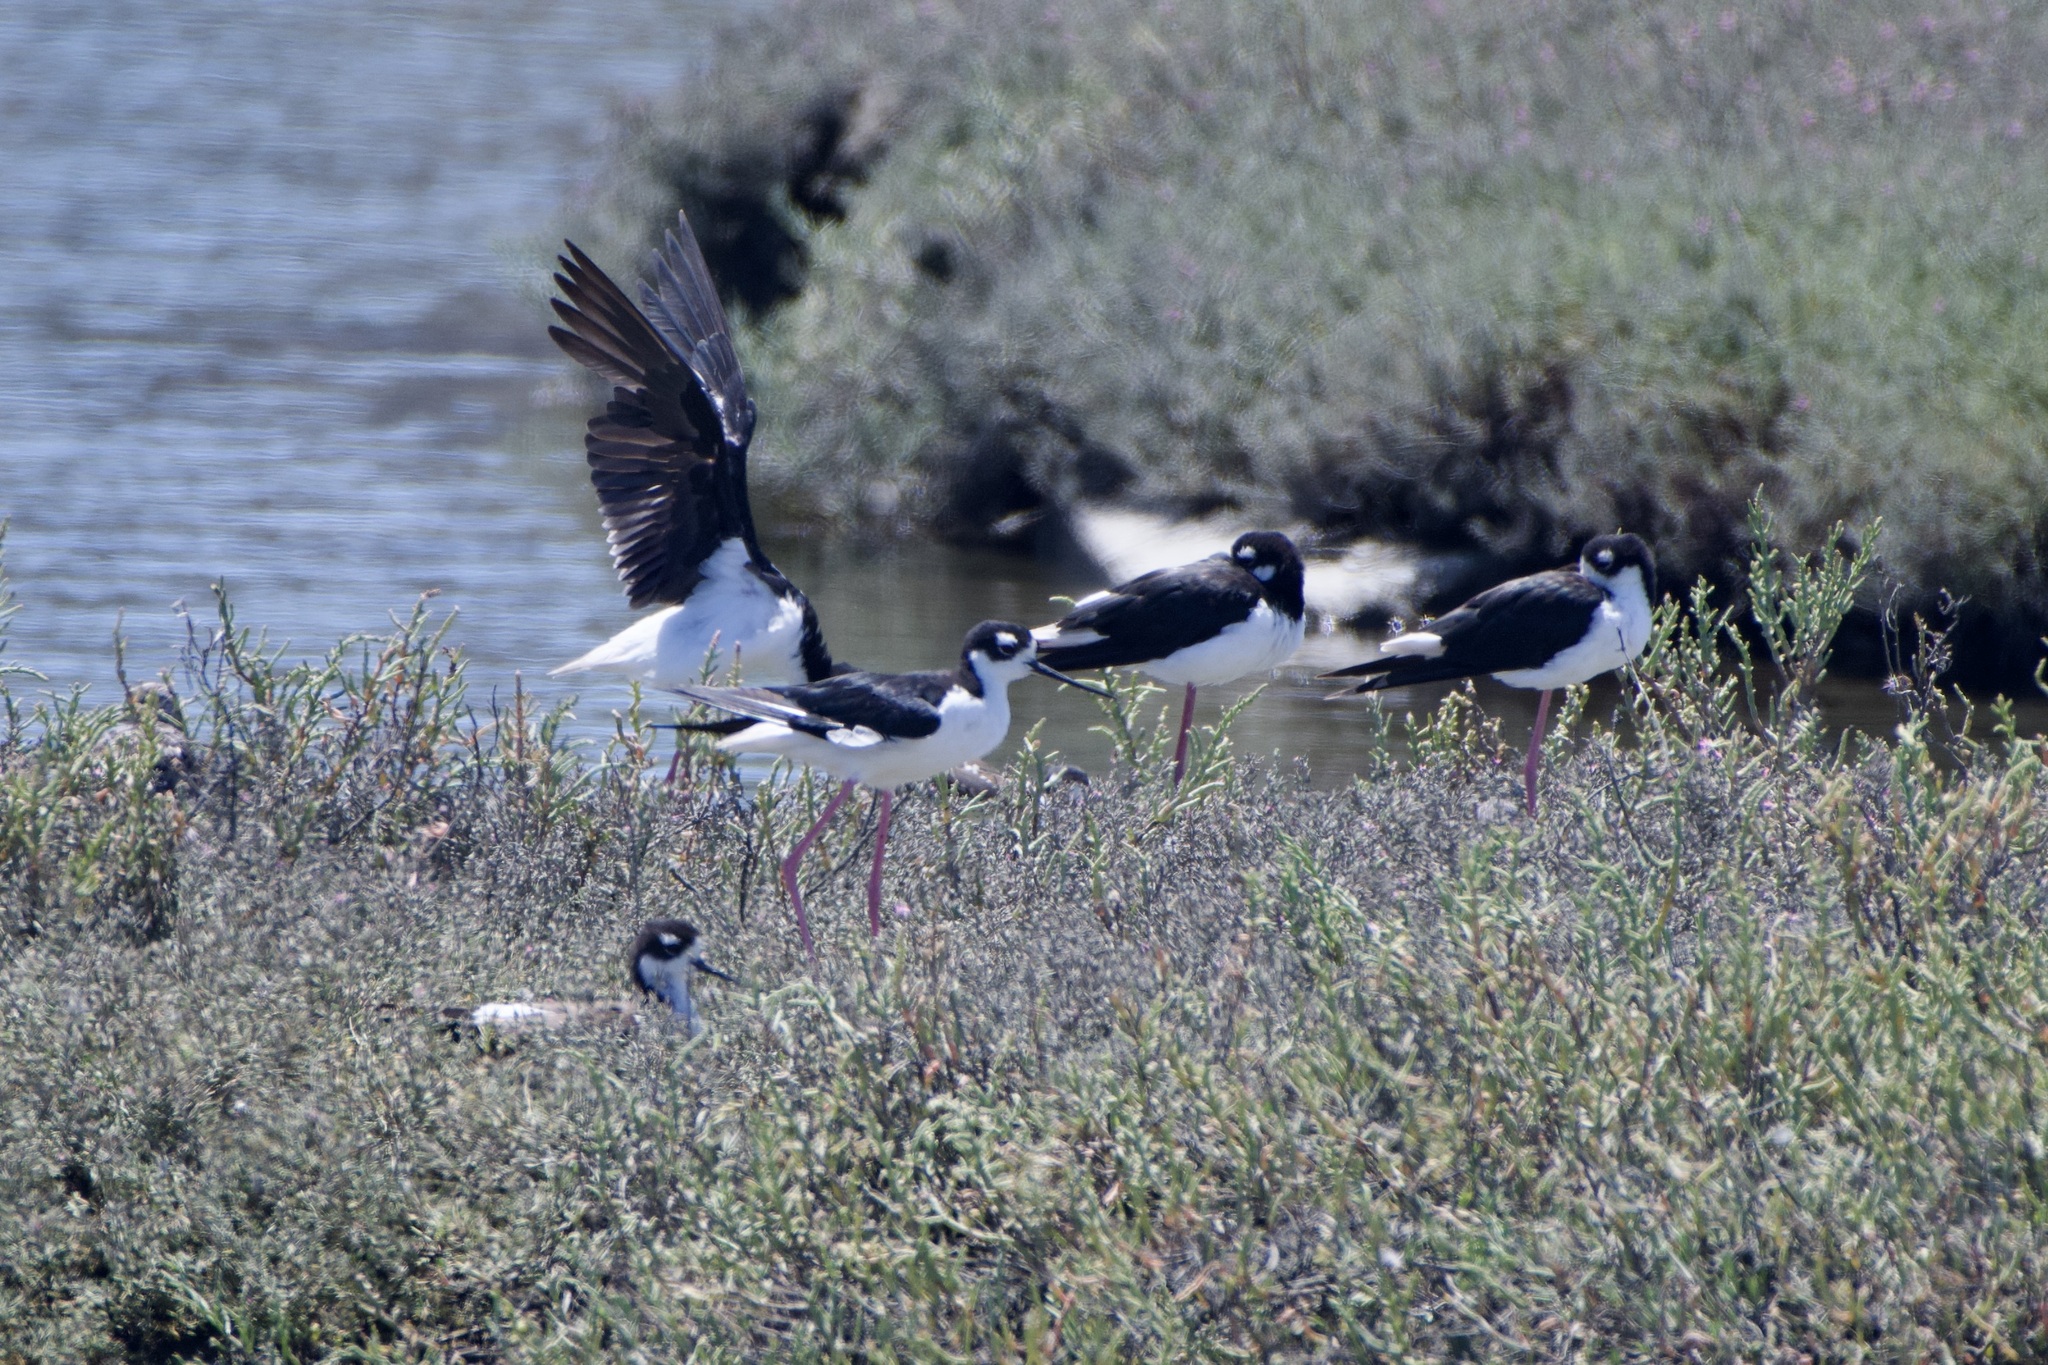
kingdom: Animalia
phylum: Chordata
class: Aves
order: Charadriiformes
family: Recurvirostridae
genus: Himantopus
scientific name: Himantopus mexicanus
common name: Black-necked stilt
